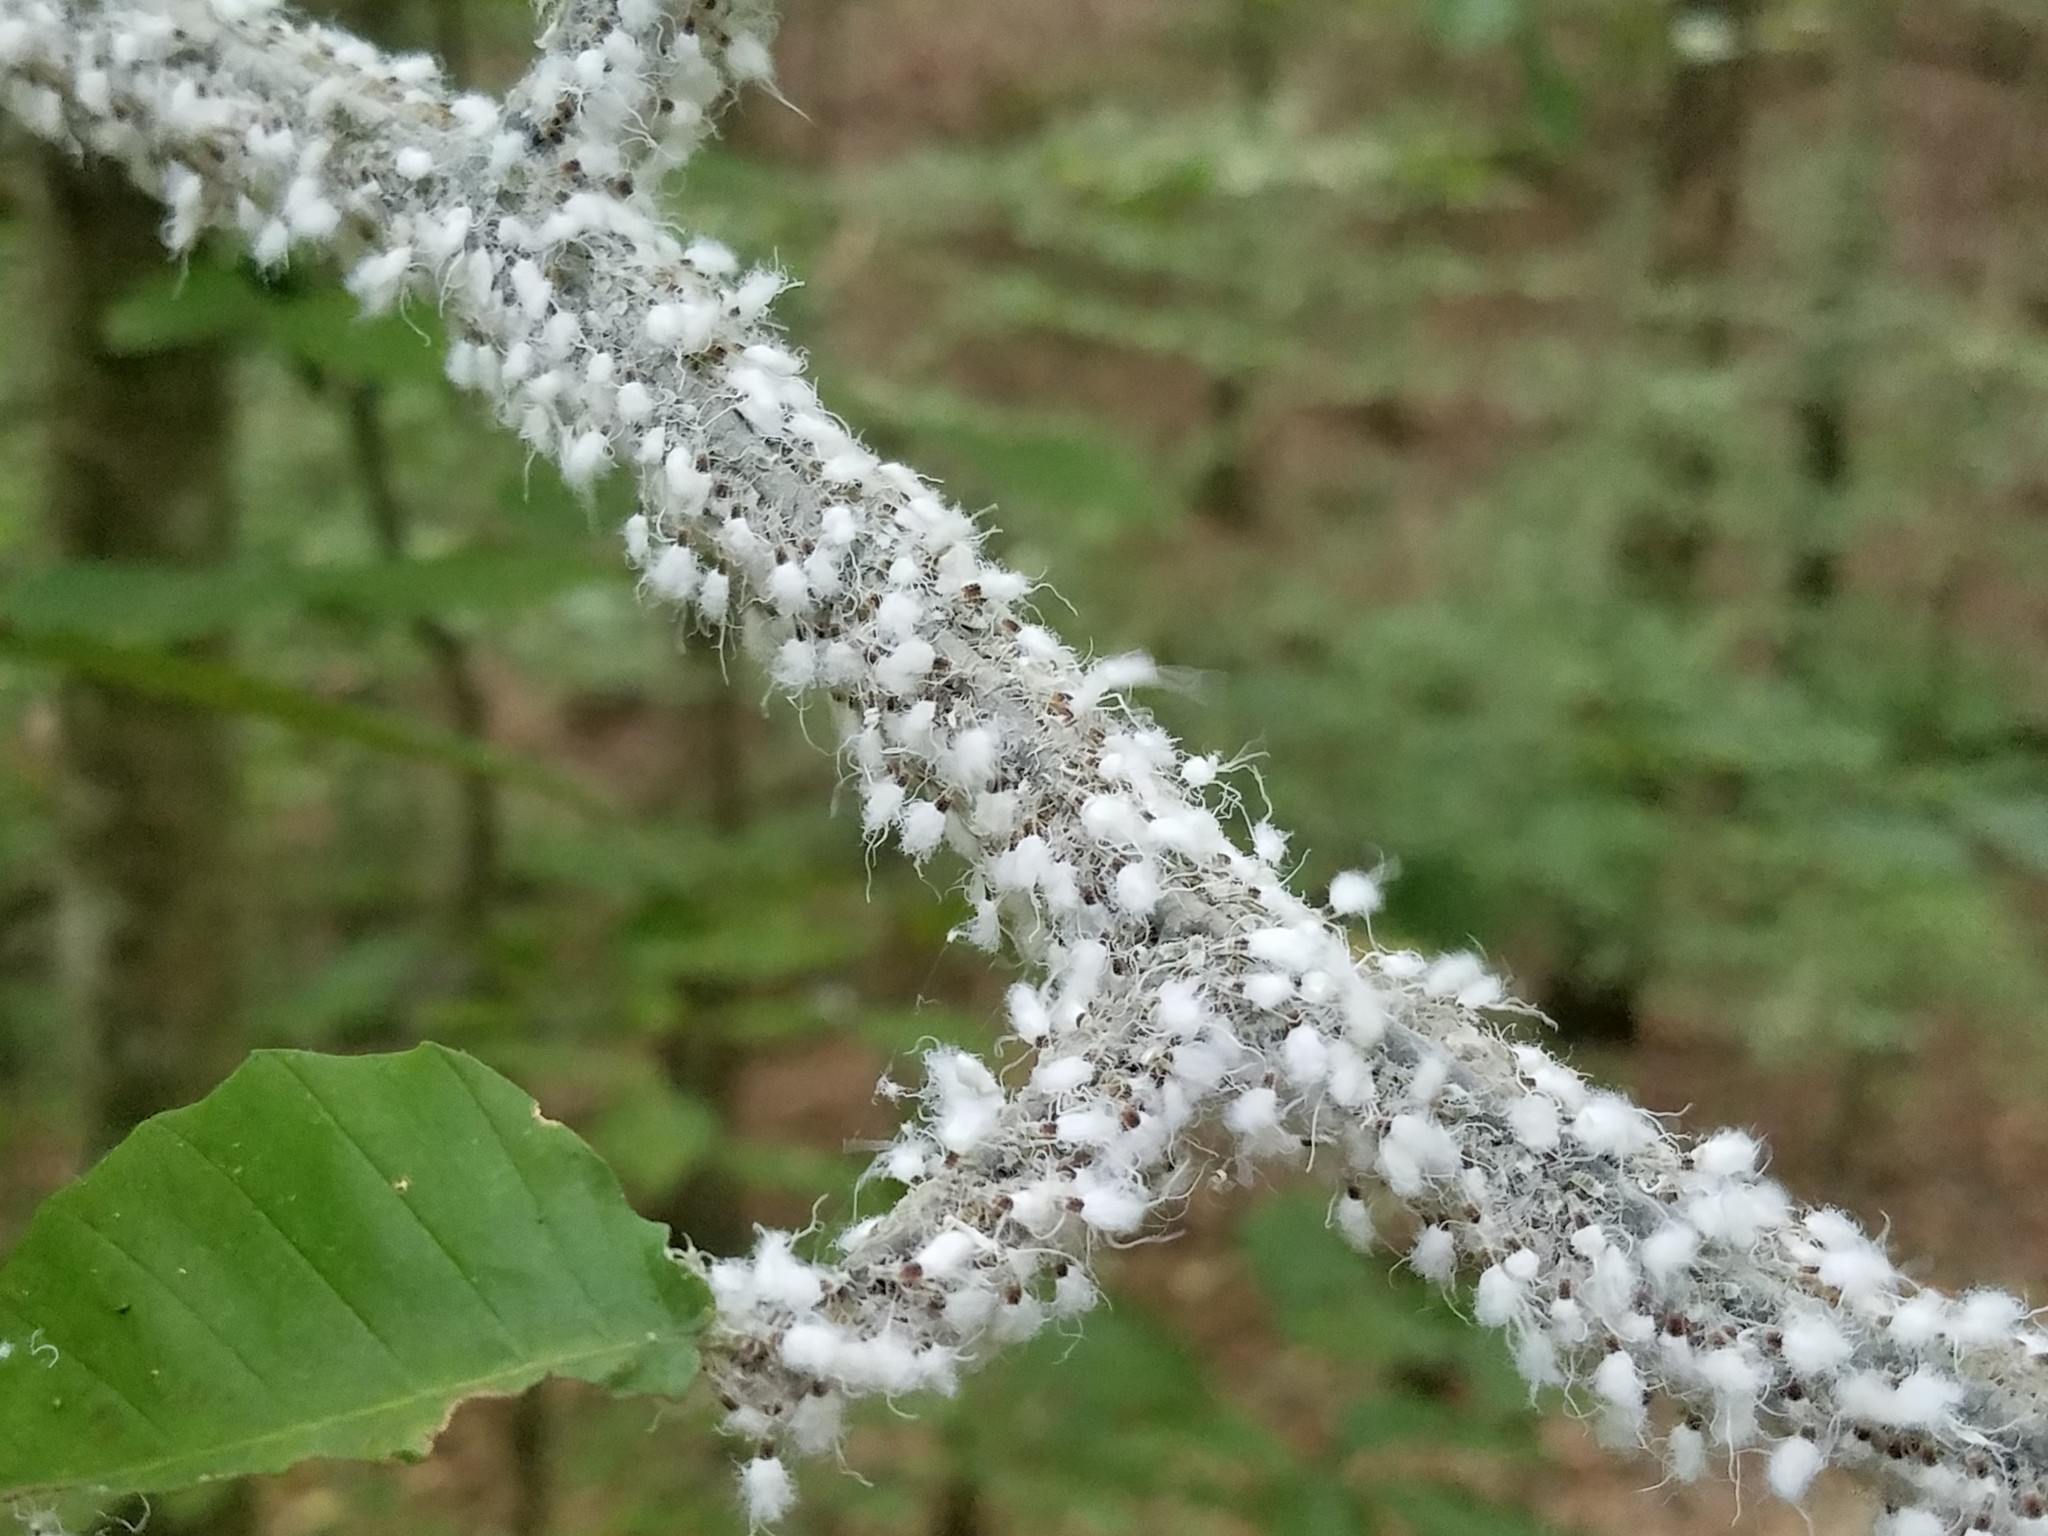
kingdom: Animalia
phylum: Arthropoda
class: Insecta
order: Hemiptera
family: Aphididae
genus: Grylloprociphilus
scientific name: Grylloprociphilus imbricator
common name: Beech blight aphid
